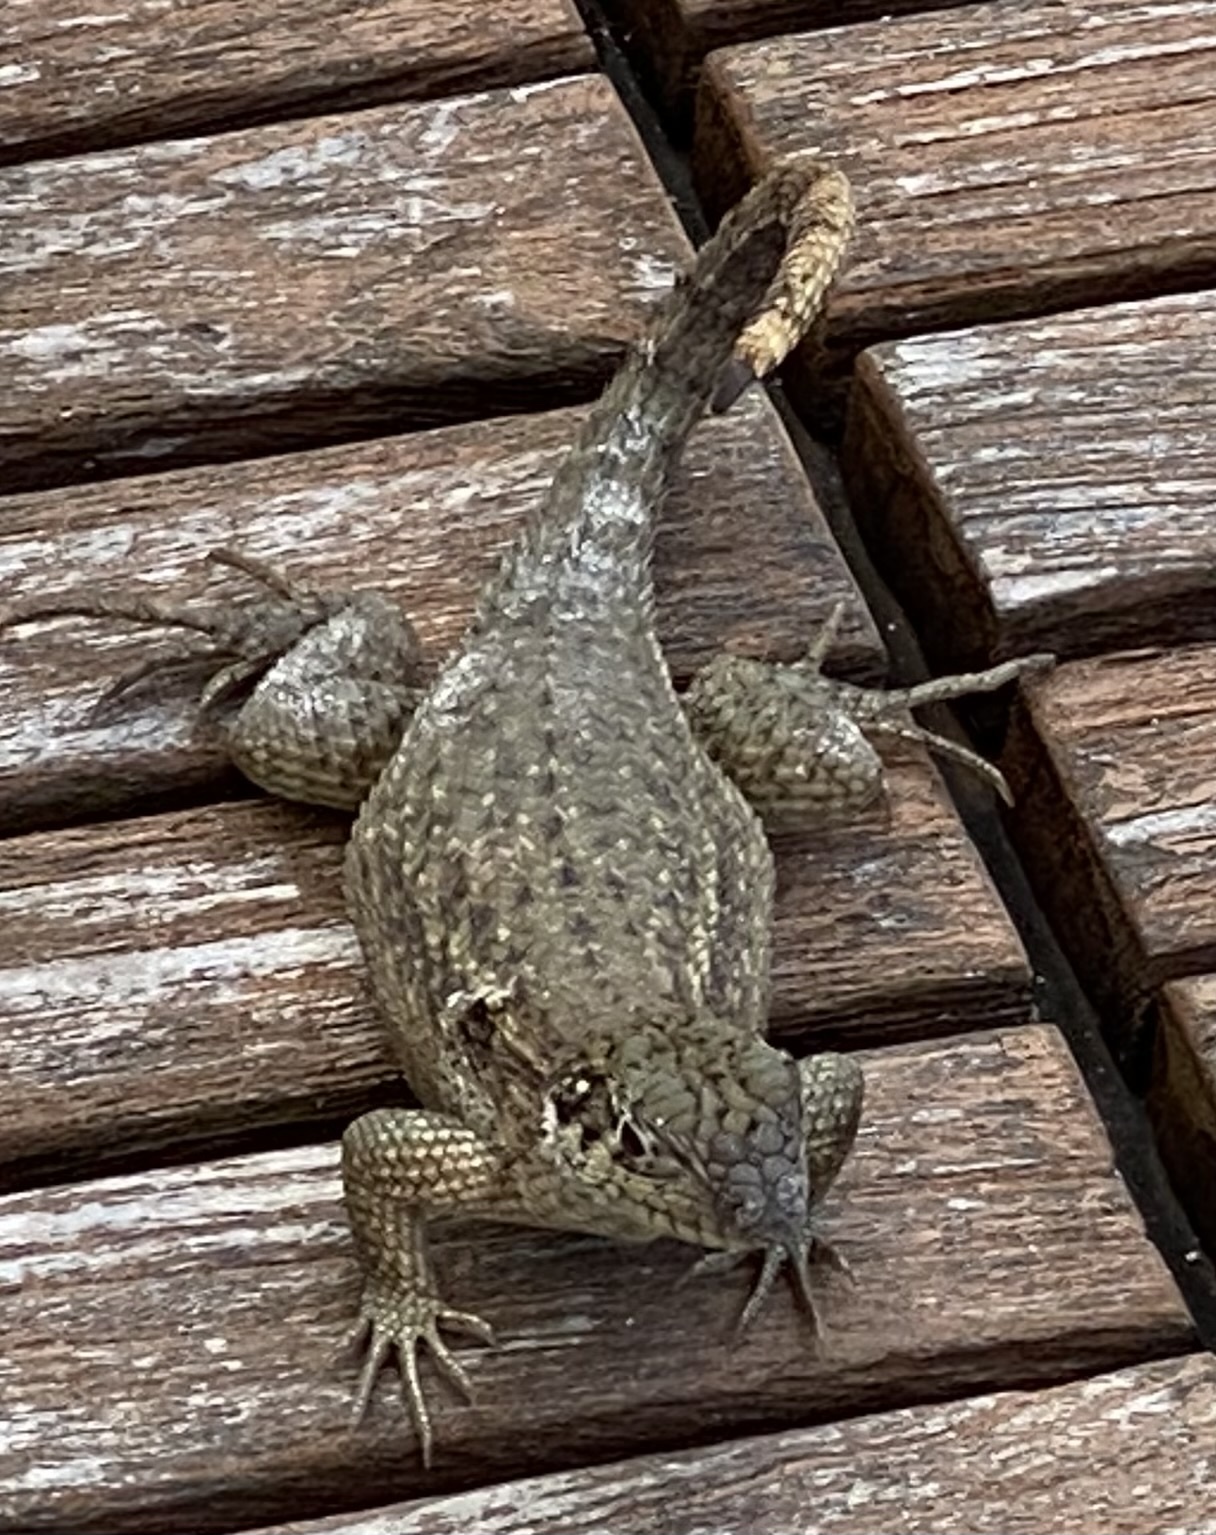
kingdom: Animalia
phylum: Chordata
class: Squamata
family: Leiocephalidae
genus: Leiocephalus
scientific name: Leiocephalus carinatus
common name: Northern curly-tailed lizard
